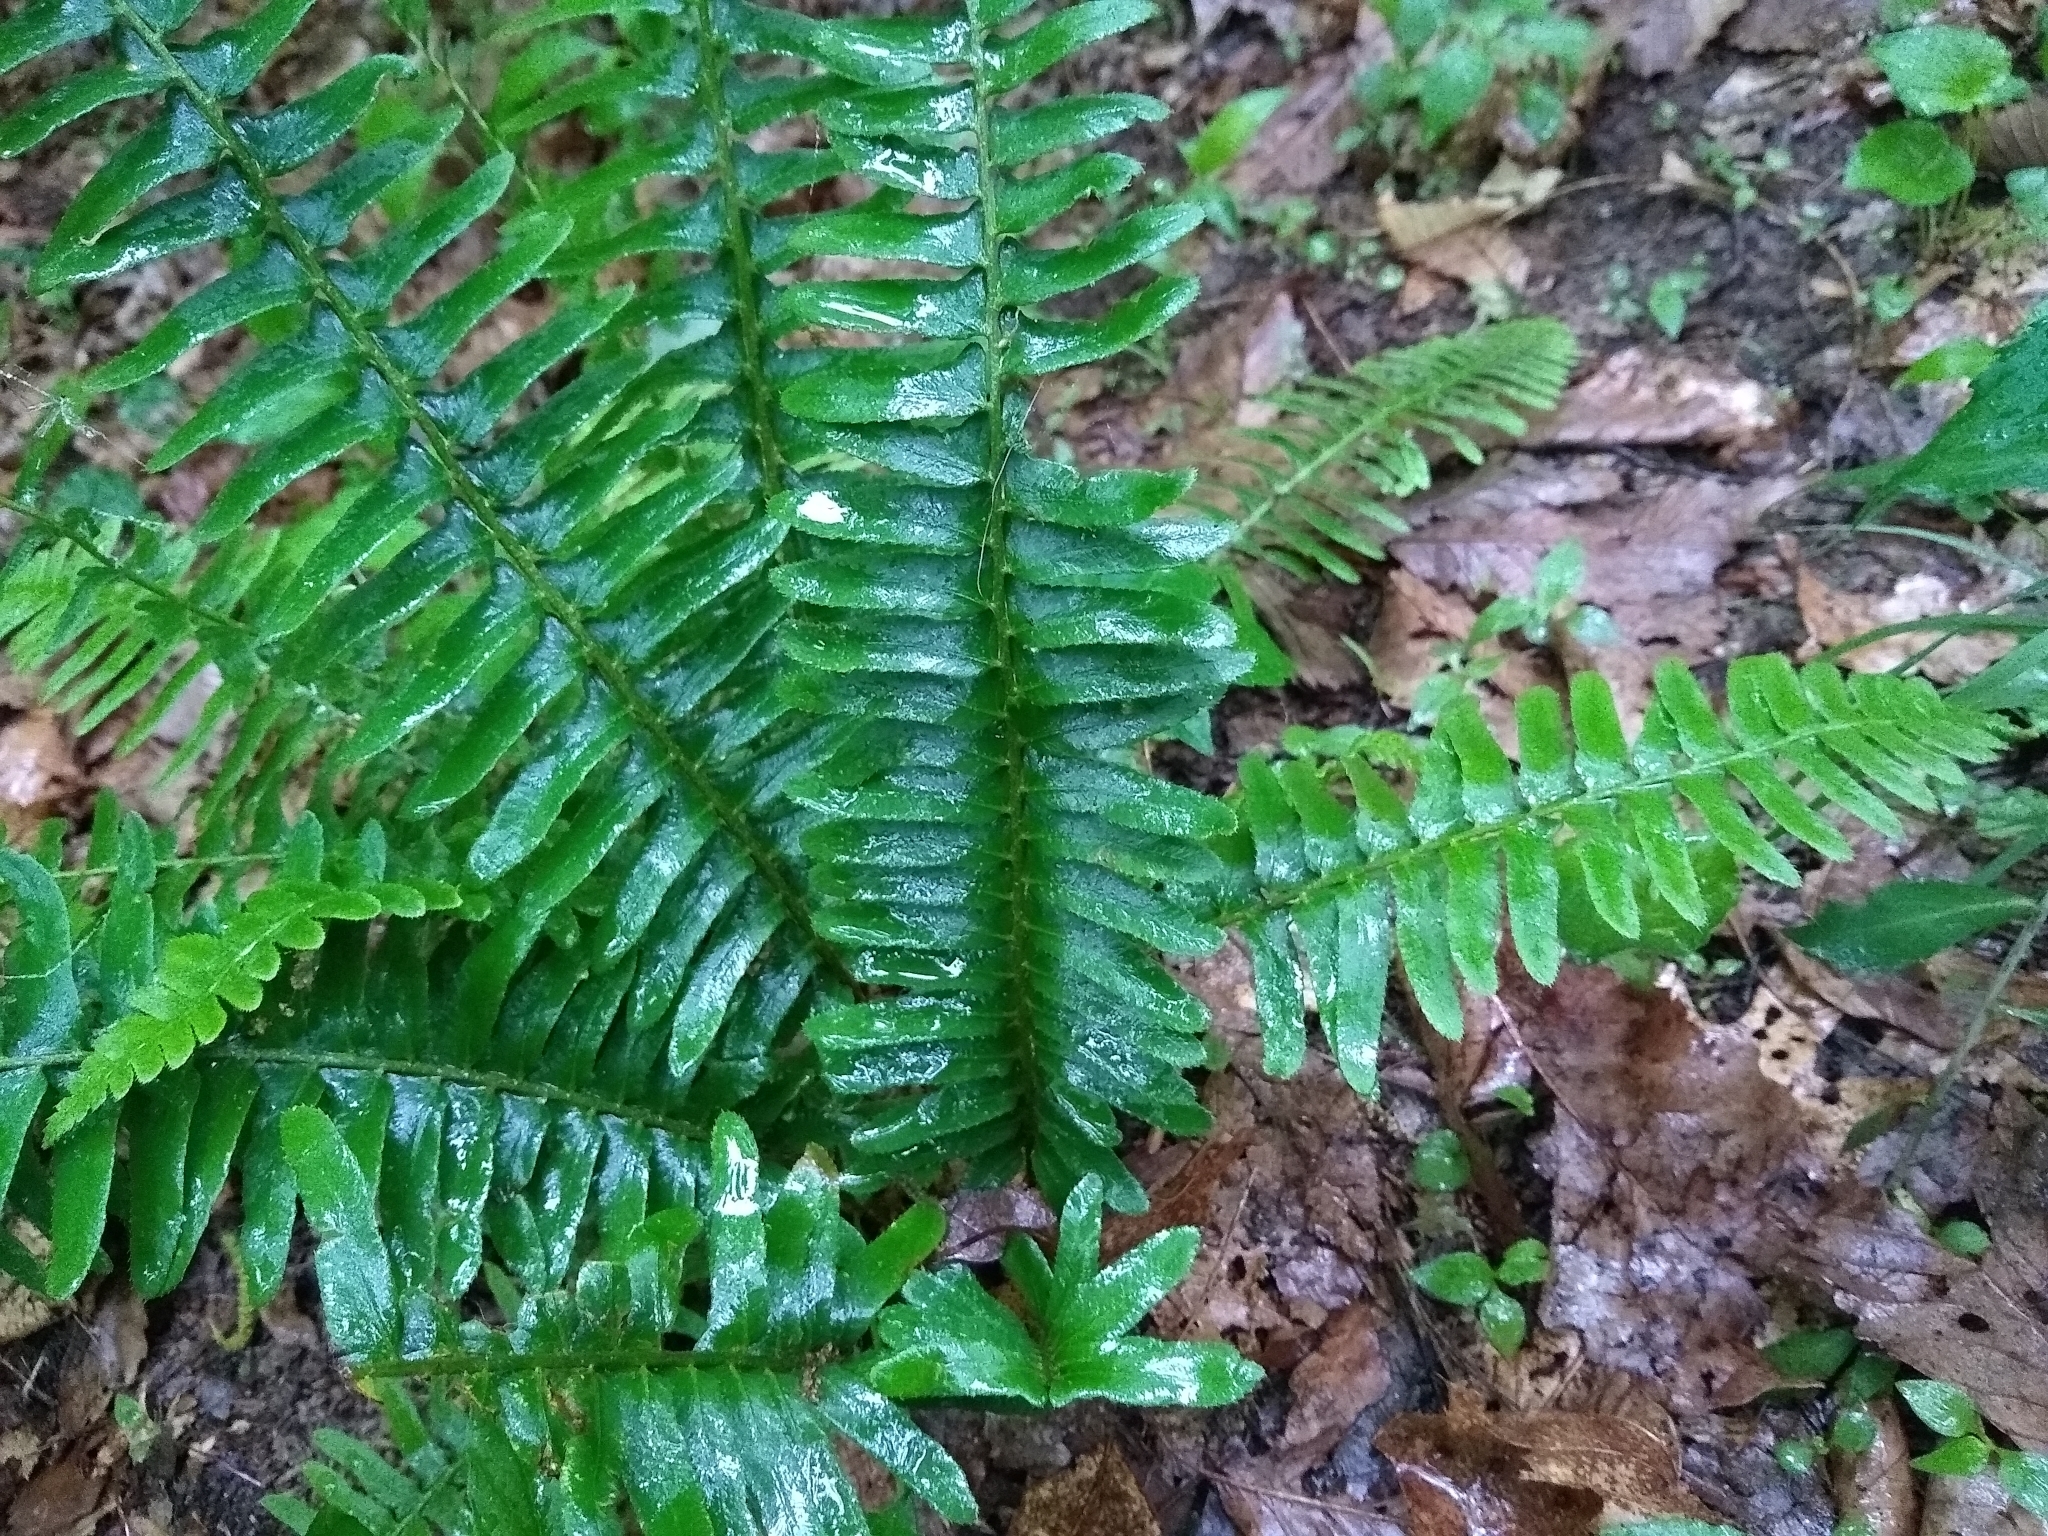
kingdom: Plantae
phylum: Tracheophyta
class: Polypodiopsida
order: Polypodiales
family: Dryopteridaceae
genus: Polystichum
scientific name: Polystichum acrostichoides
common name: Christmas fern
